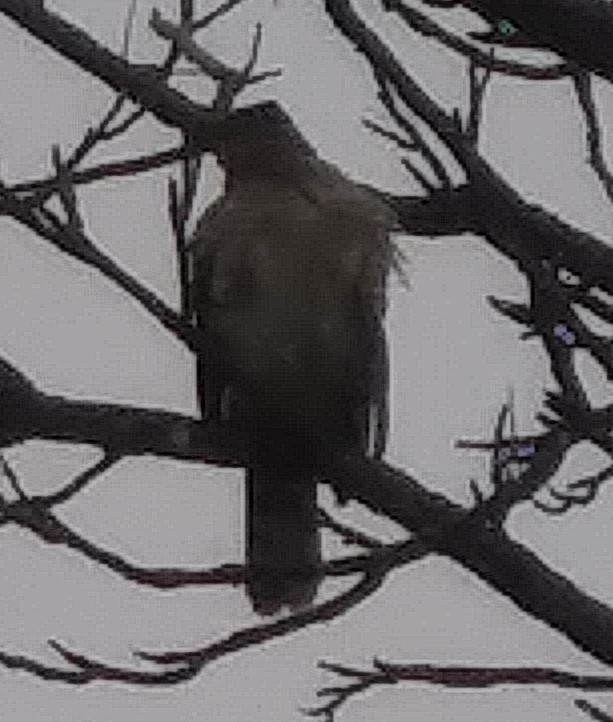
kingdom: Animalia
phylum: Chordata
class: Aves
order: Accipitriformes
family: Accipitridae
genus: Accipiter
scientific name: Accipiter cooperii
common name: Cooper's hawk
